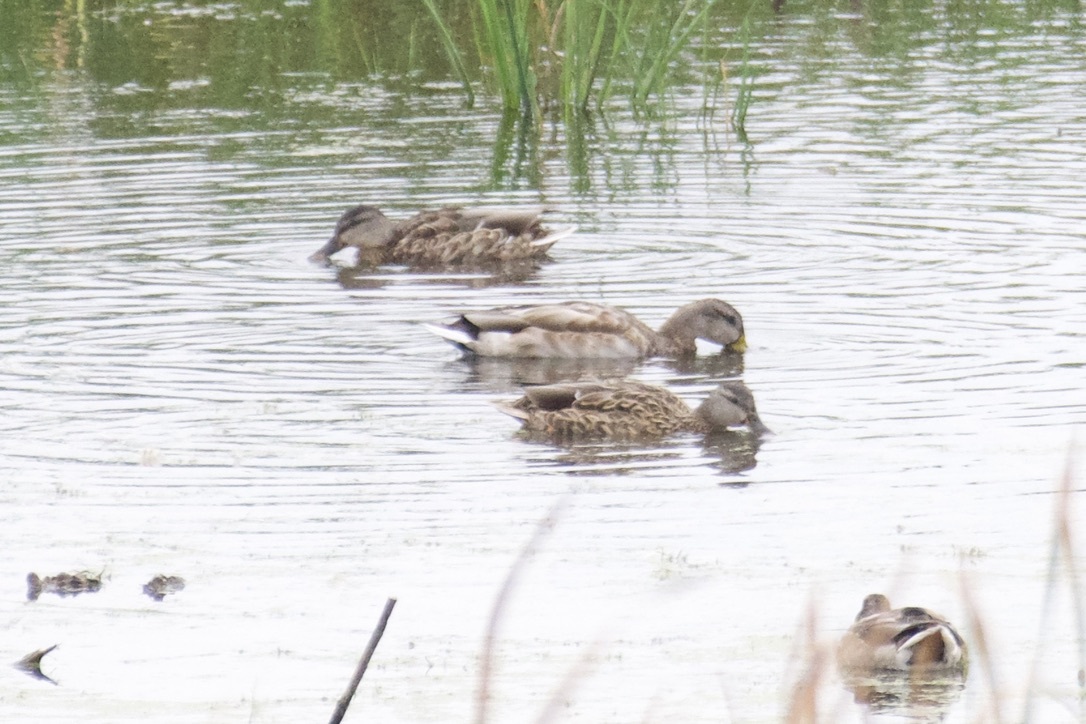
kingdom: Animalia
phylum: Chordata
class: Aves
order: Anseriformes
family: Anatidae
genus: Anas
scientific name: Anas platyrhynchos
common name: Mallard
